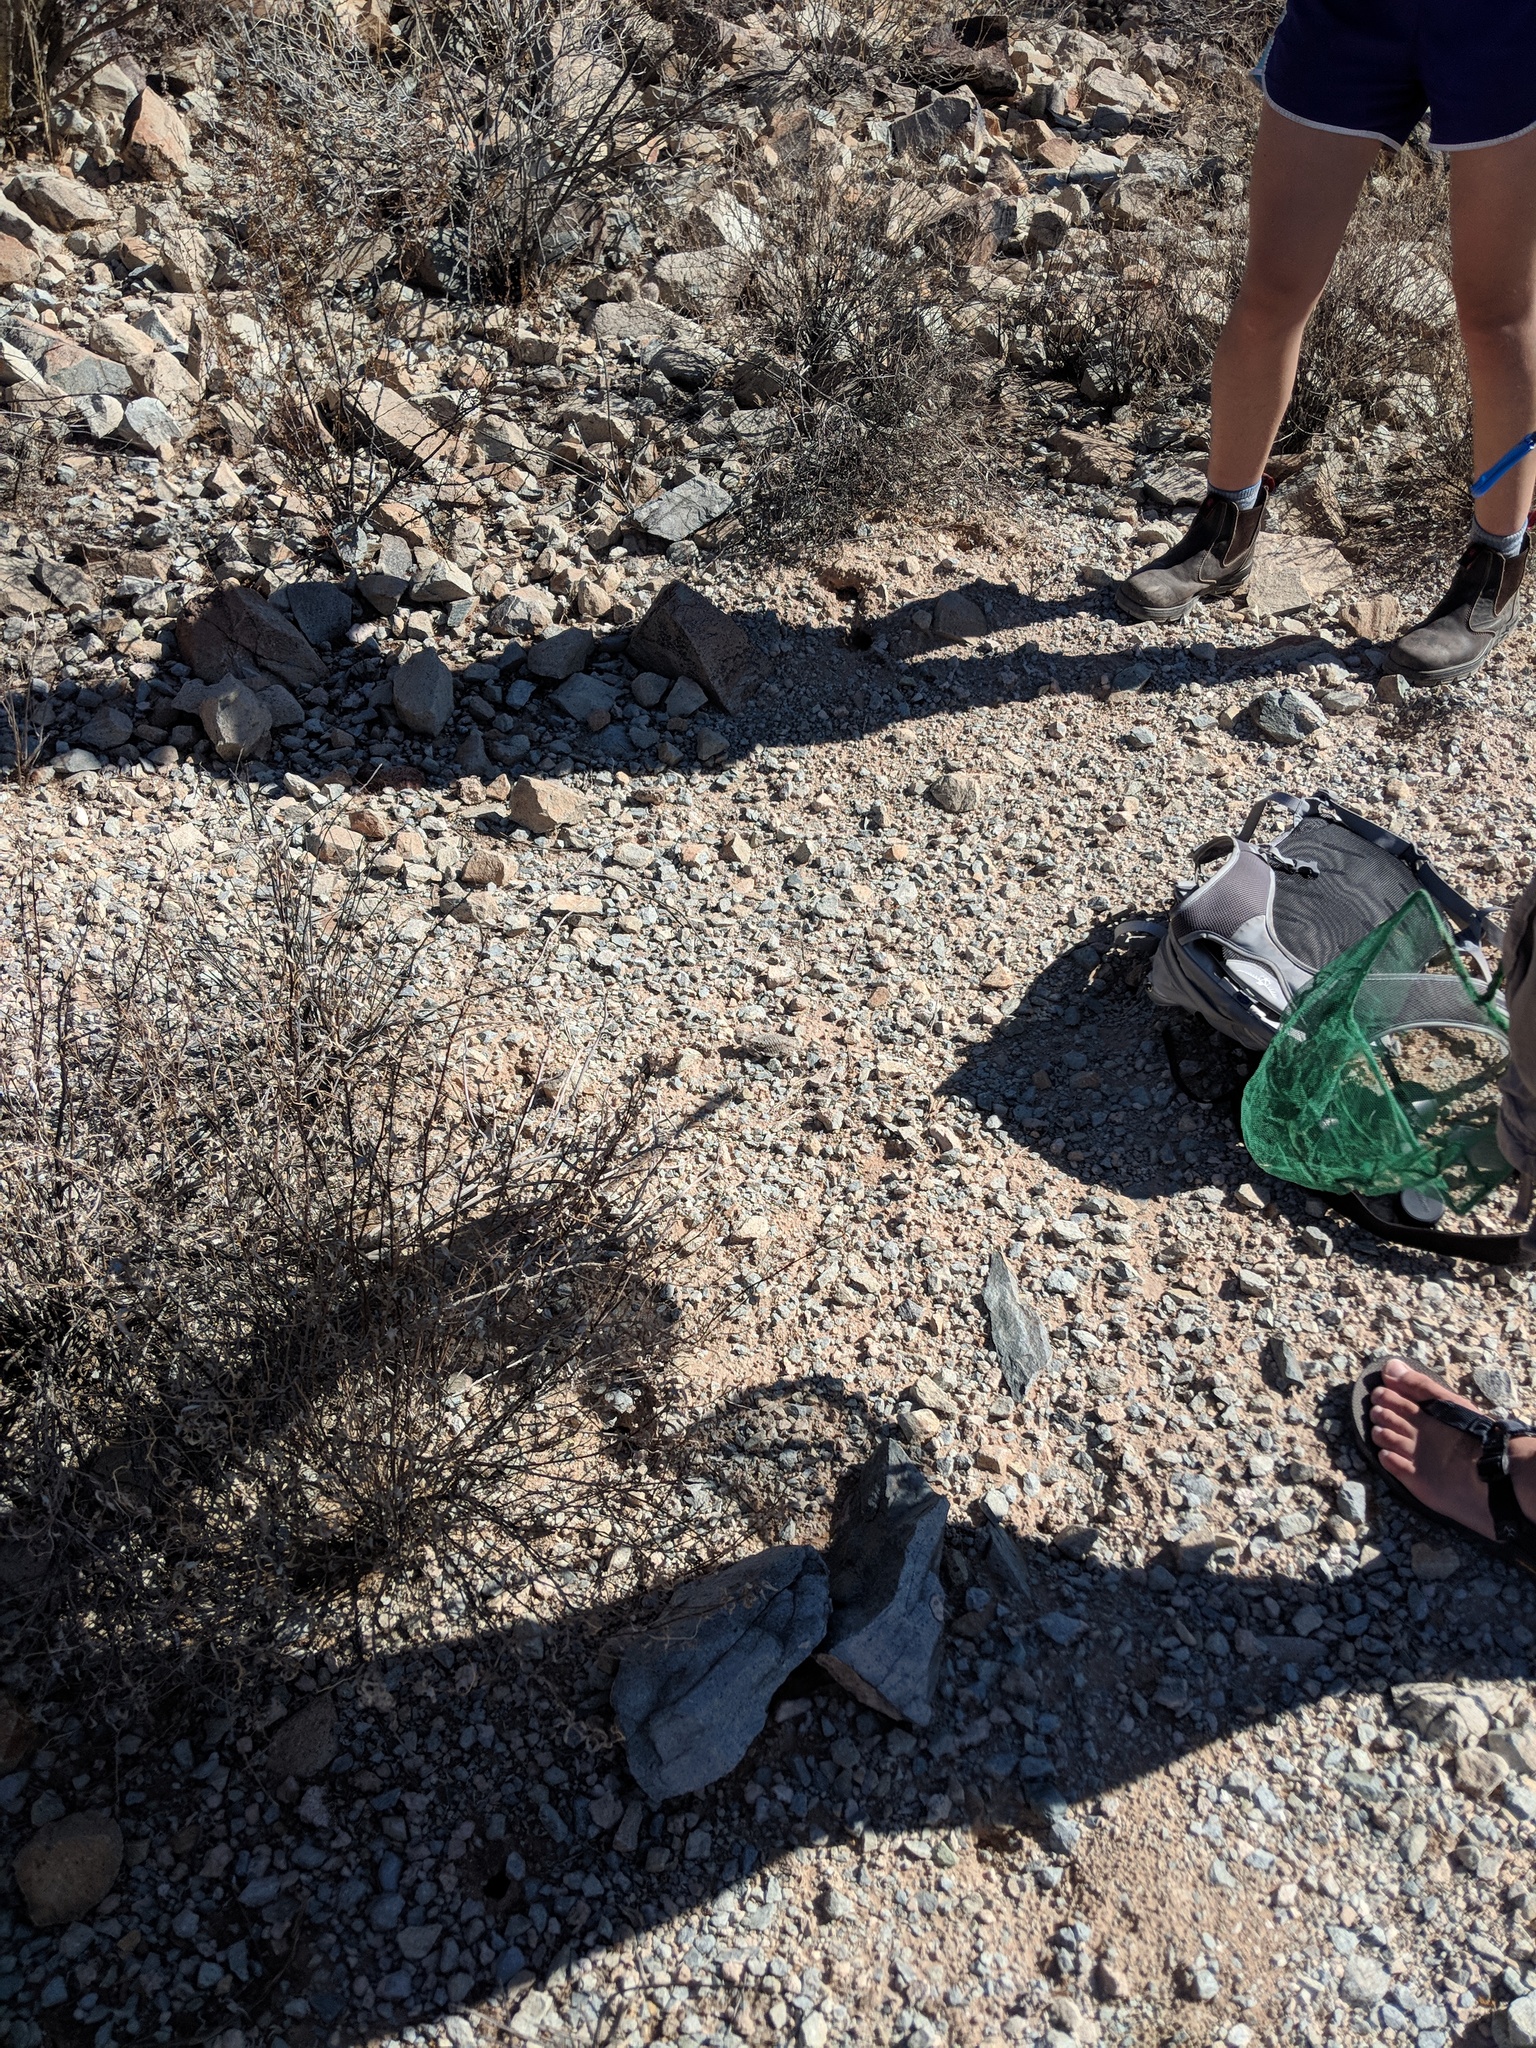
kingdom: Animalia
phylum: Chordata
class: Squamata
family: Phrynosomatidae
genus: Phrynosoma
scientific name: Phrynosoma solare
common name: Regal horned lizard
